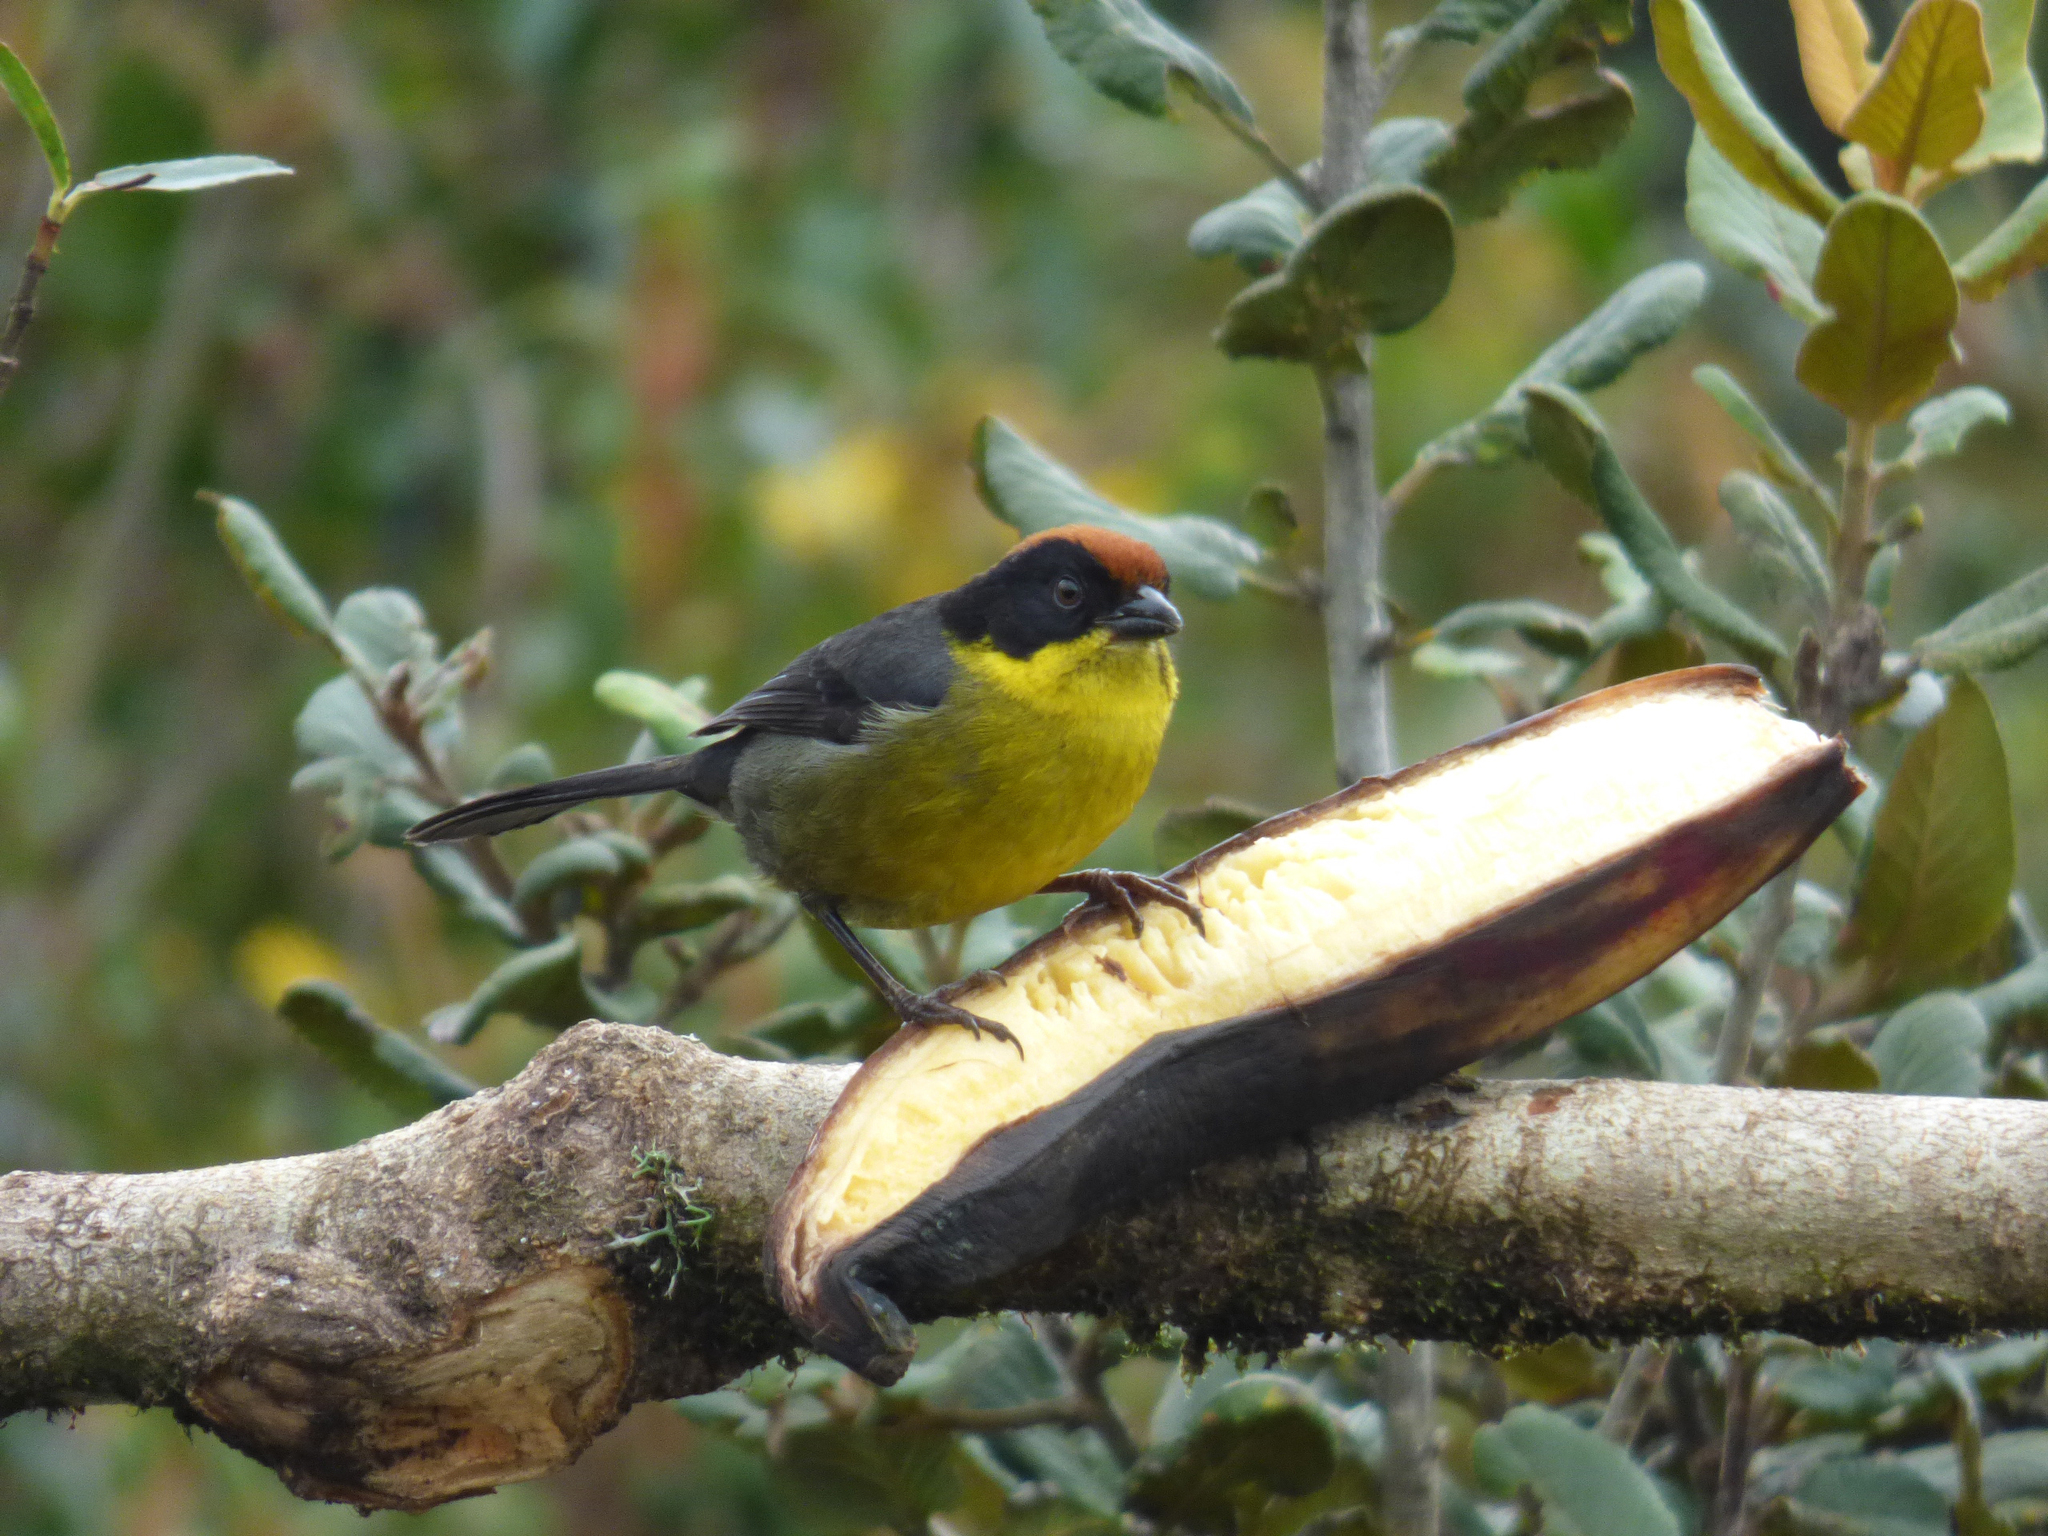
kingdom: Animalia
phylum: Chordata
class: Aves
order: Passeriformes
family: Passerellidae
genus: Atlapetes
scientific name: Atlapetes latinuchus
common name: Yellow-breasted brushfinch
